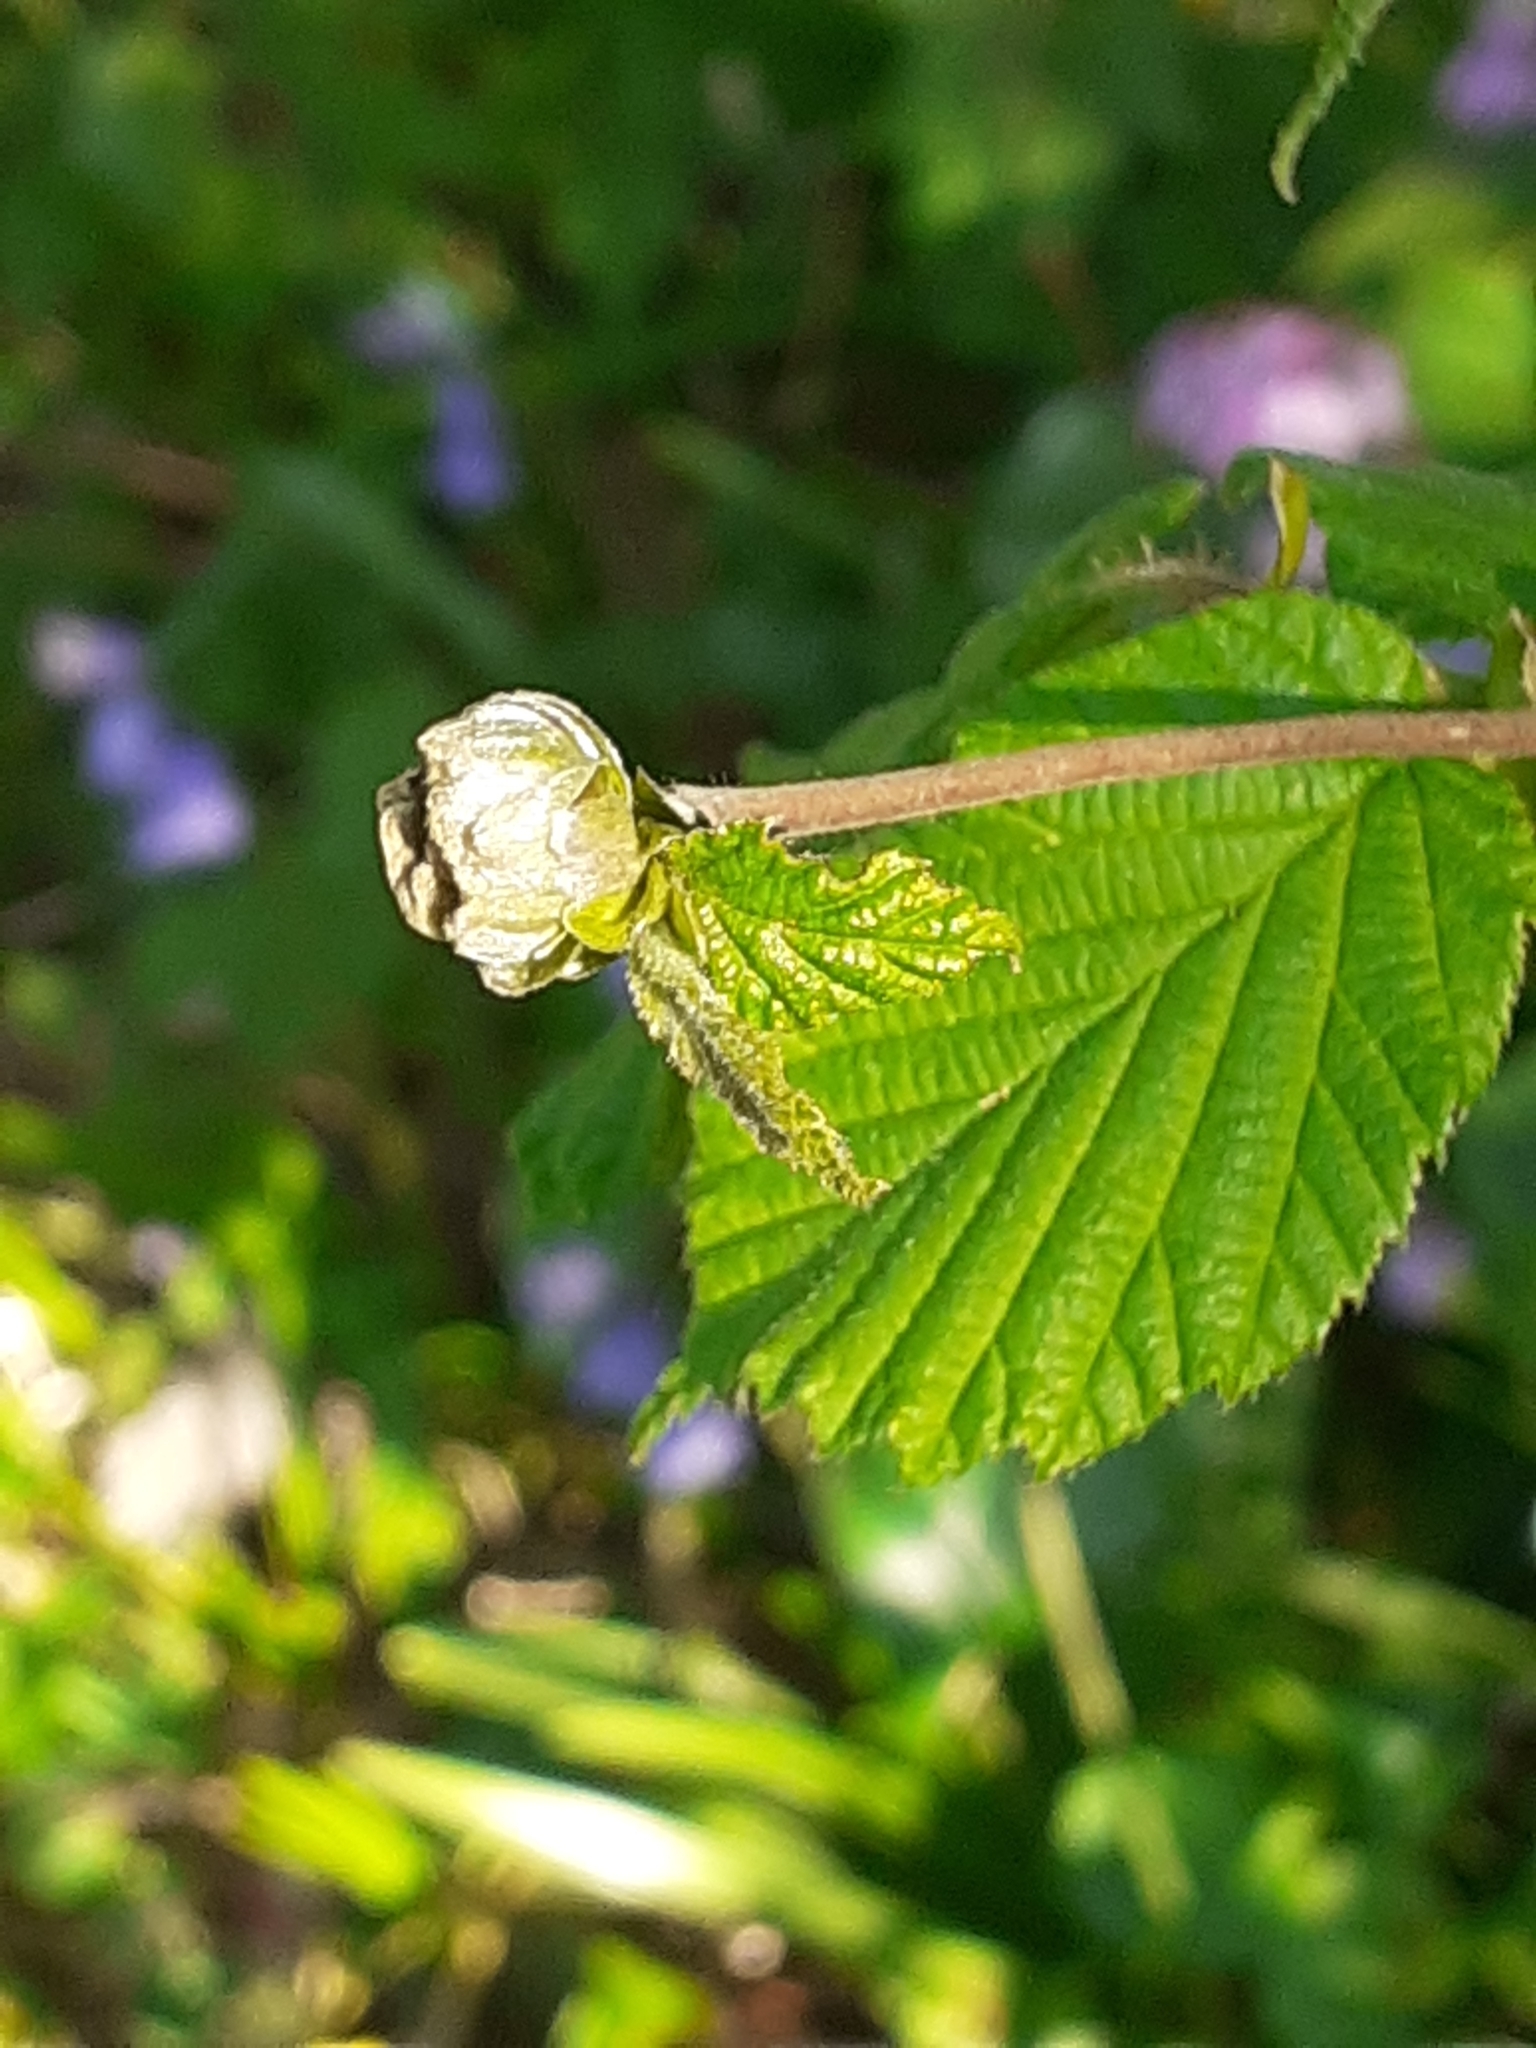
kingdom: Animalia
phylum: Arthropoda
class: Arachnida
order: Trombidiformes
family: Phytoptidae
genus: Phytoptus
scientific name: Phytoptus avellanae
